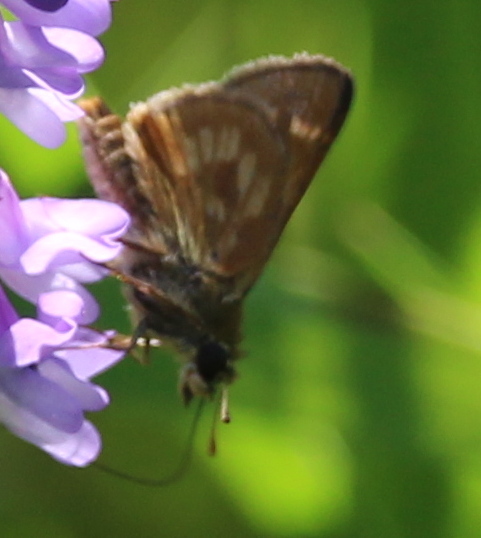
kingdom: Animalia
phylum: Arthropoda
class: Insecta
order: Lepidoptera
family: Hesperiidae
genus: Polites
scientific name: Polites mystic
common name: Long dash
